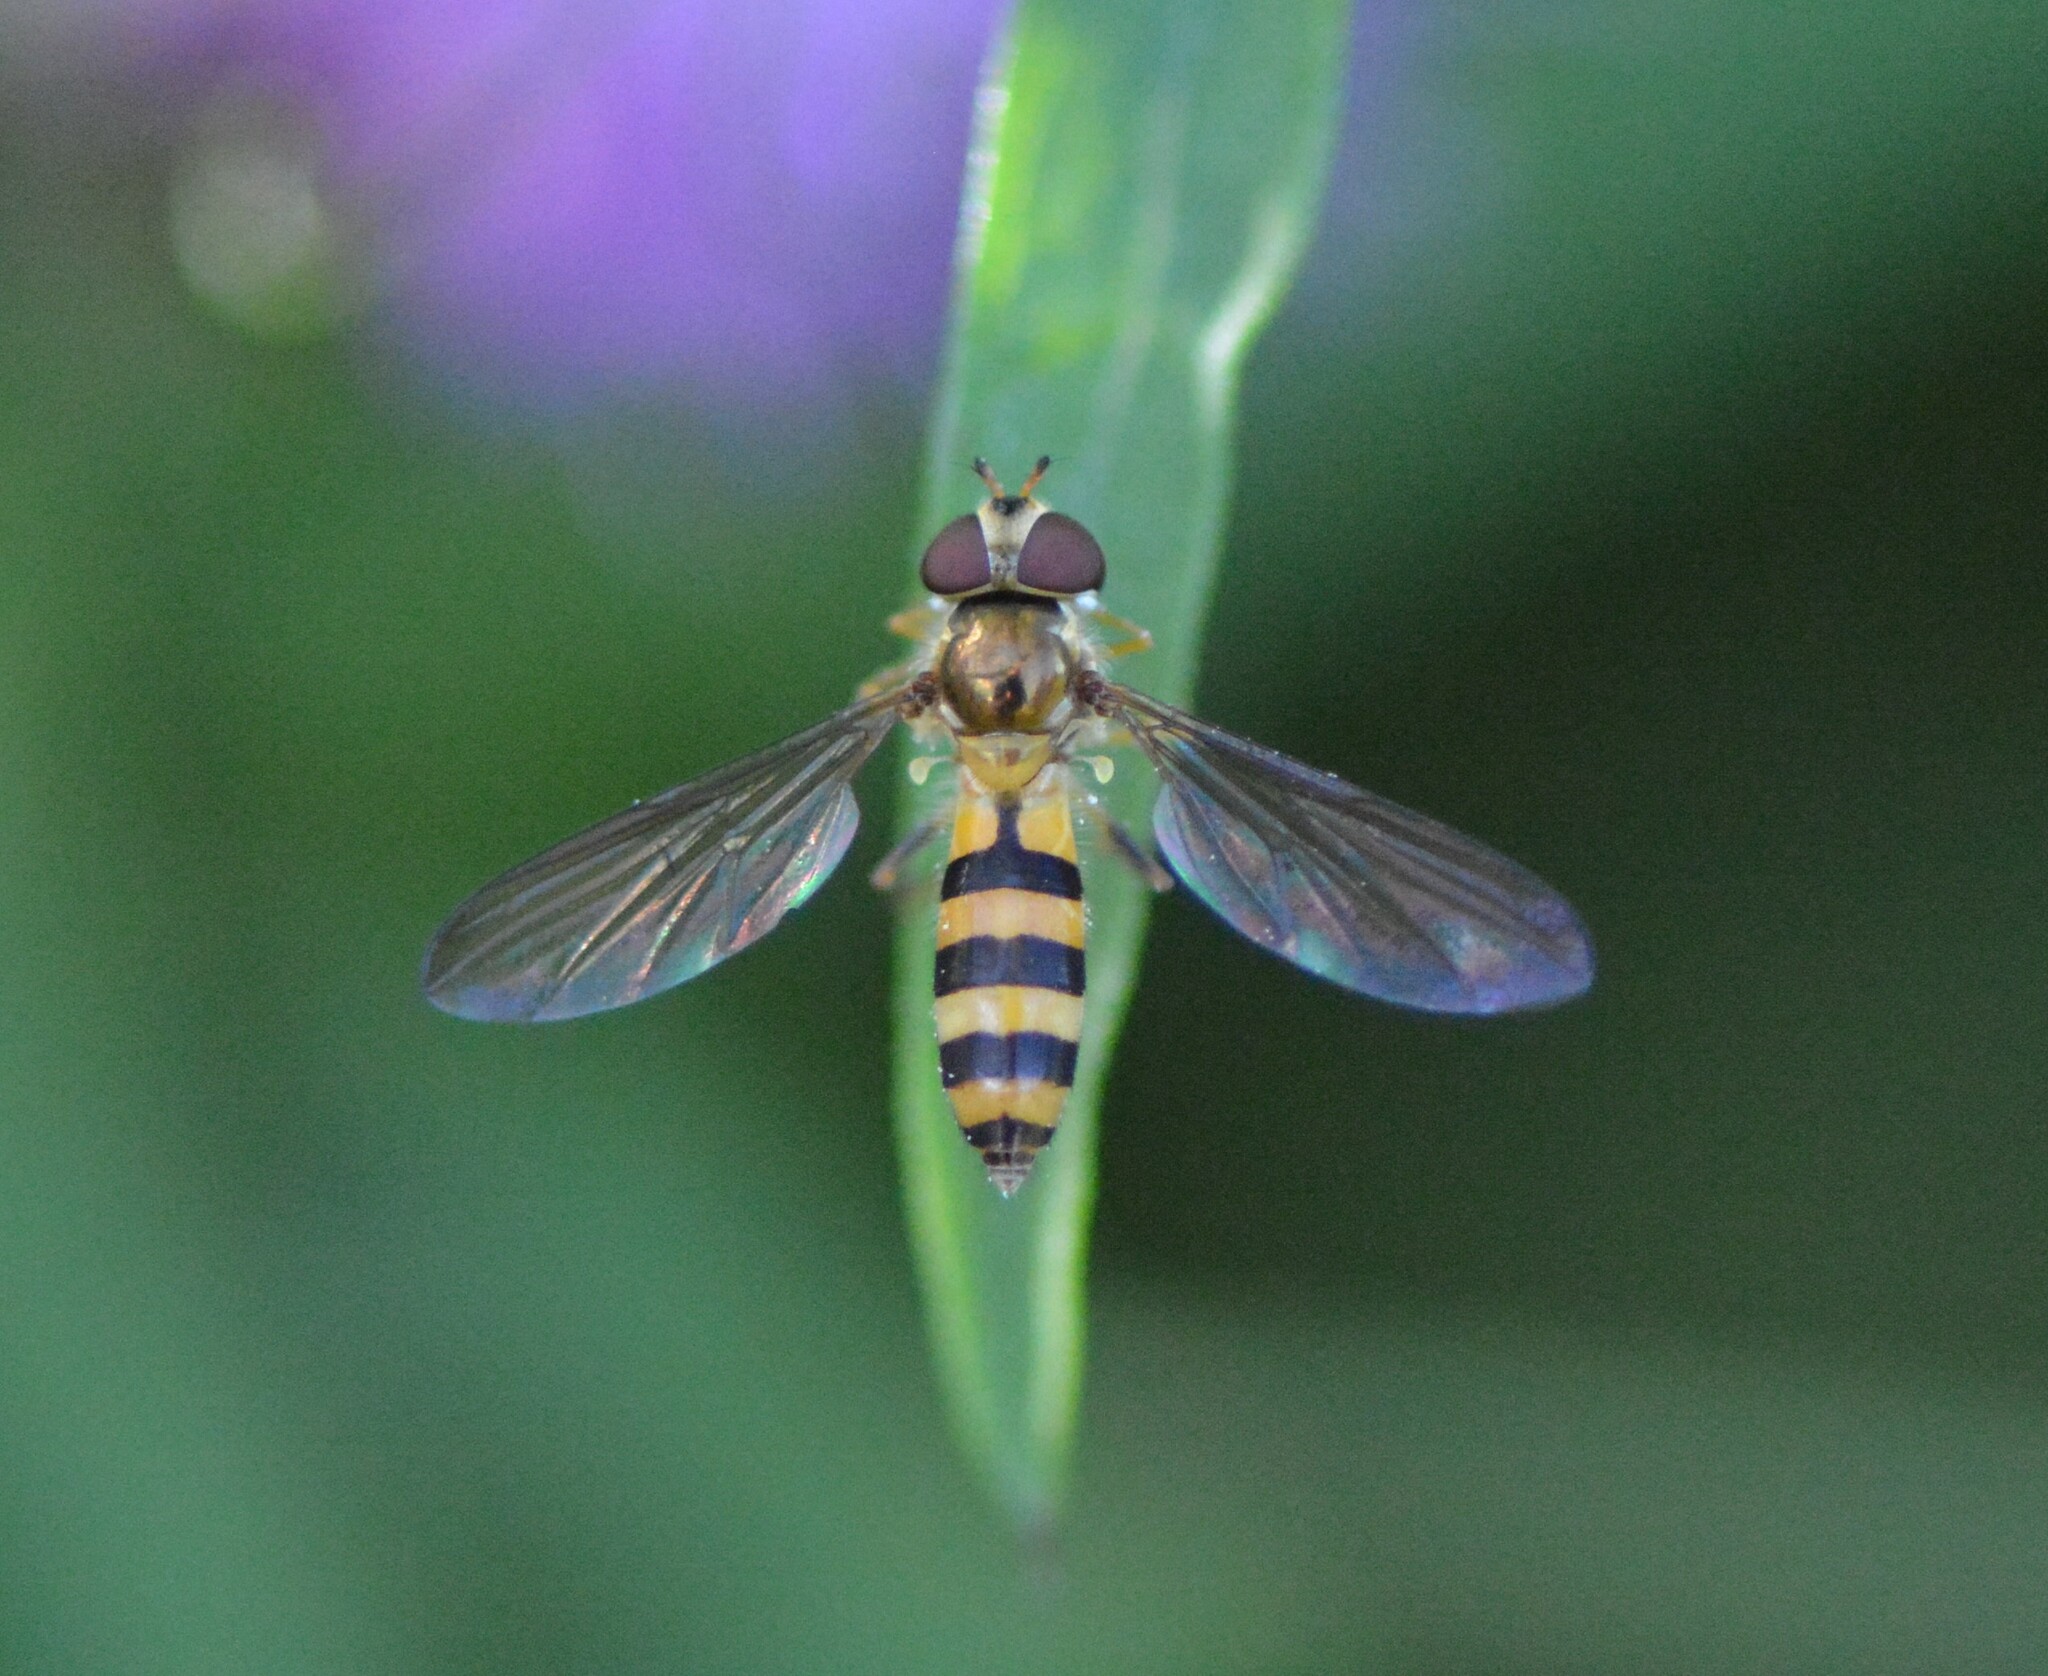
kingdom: Animalia
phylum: Arthropoda
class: Insecta
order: Diptera
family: Syrphidae
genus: Meliscaeva
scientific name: Meliscaeva cinctella
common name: American thintail fly
